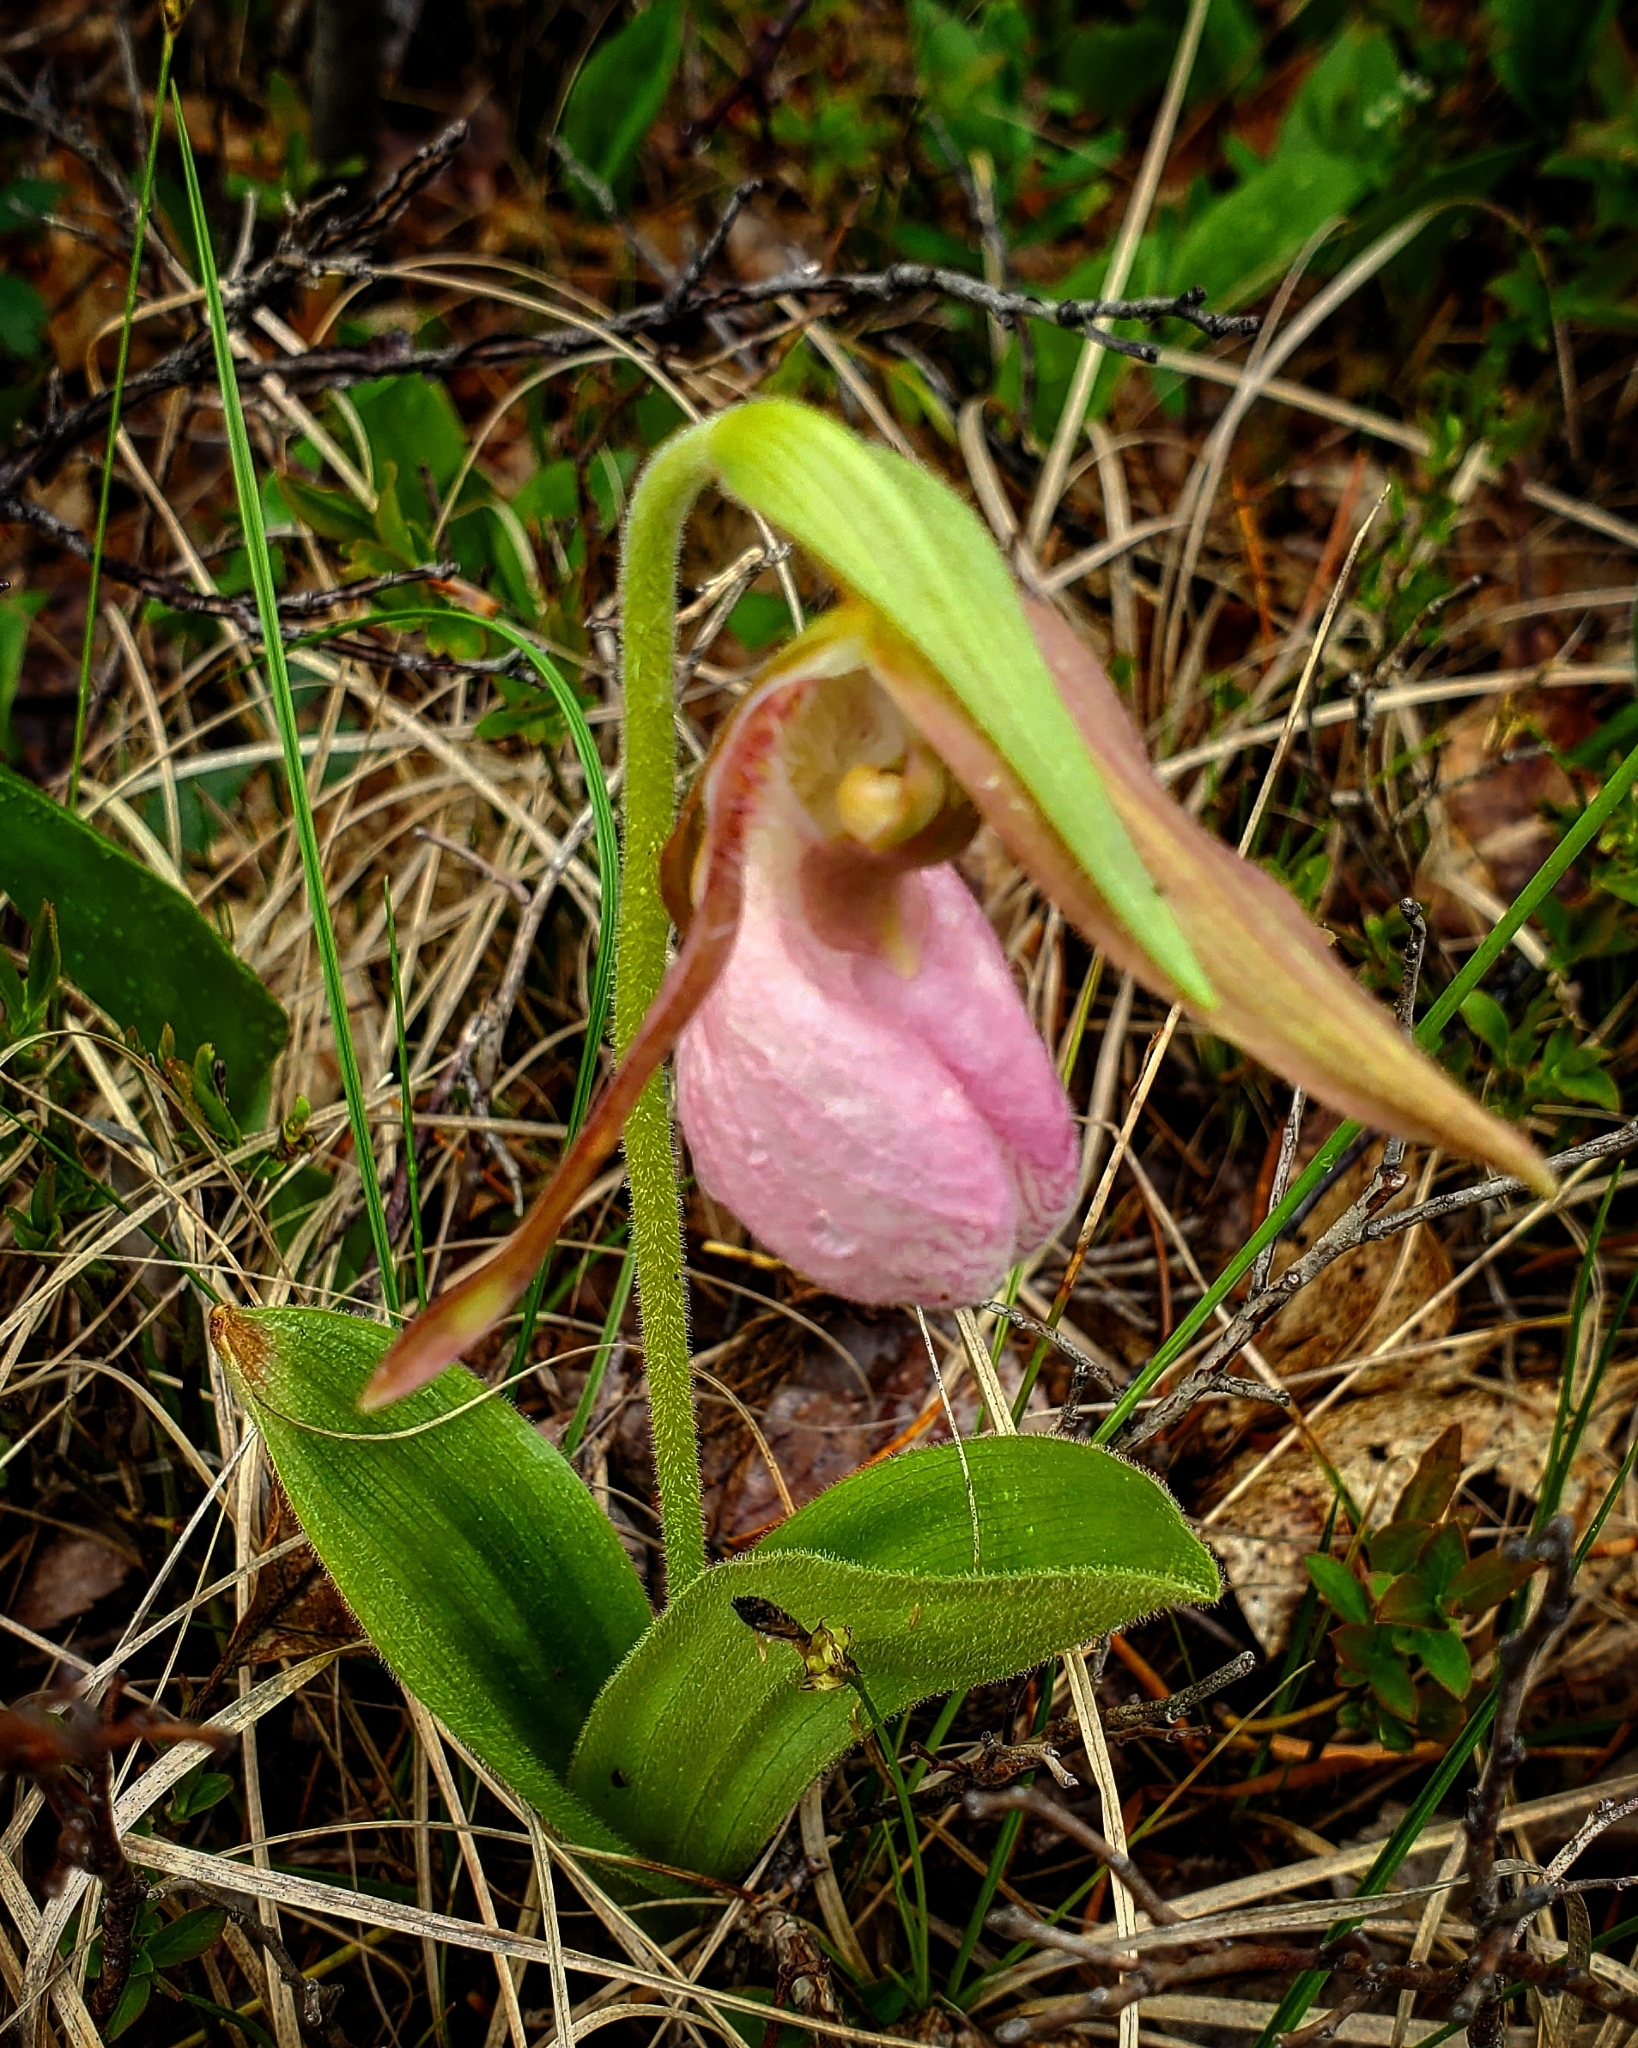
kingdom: Plantae
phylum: Tracheophyta
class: Liliopsida
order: Asparagales
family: Orchidaceae
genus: Cypripedium
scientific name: Cypripedium acaule
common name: Pink lady's-slipper
